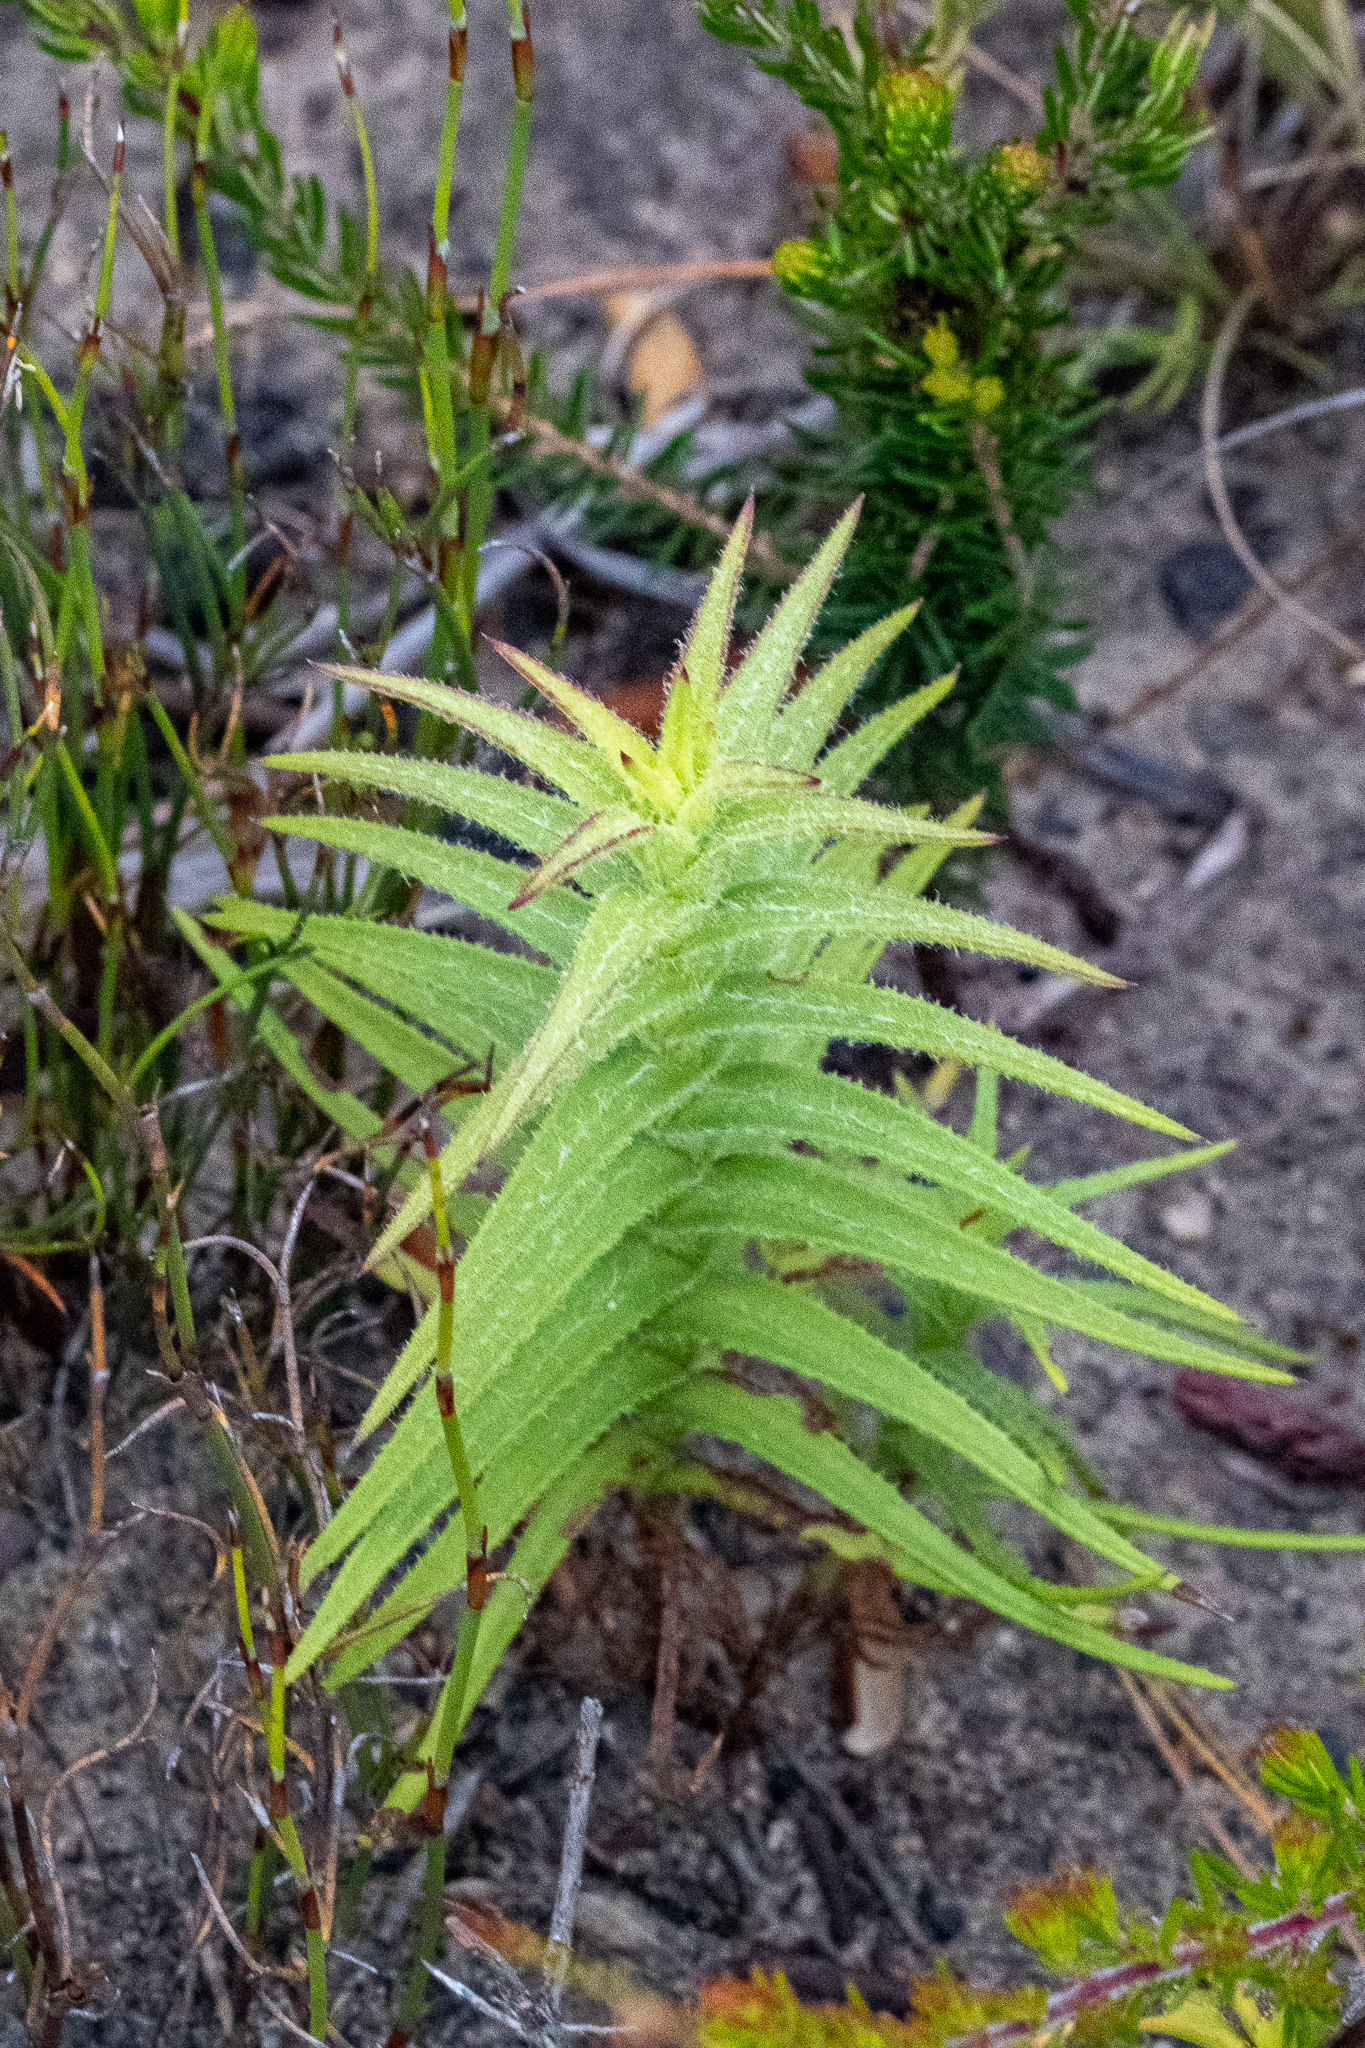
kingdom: Plantae
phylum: Tracheophyta
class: Magnoliopsida
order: Asterales
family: Asteraceae
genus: Oedera
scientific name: Oedera imbricata
